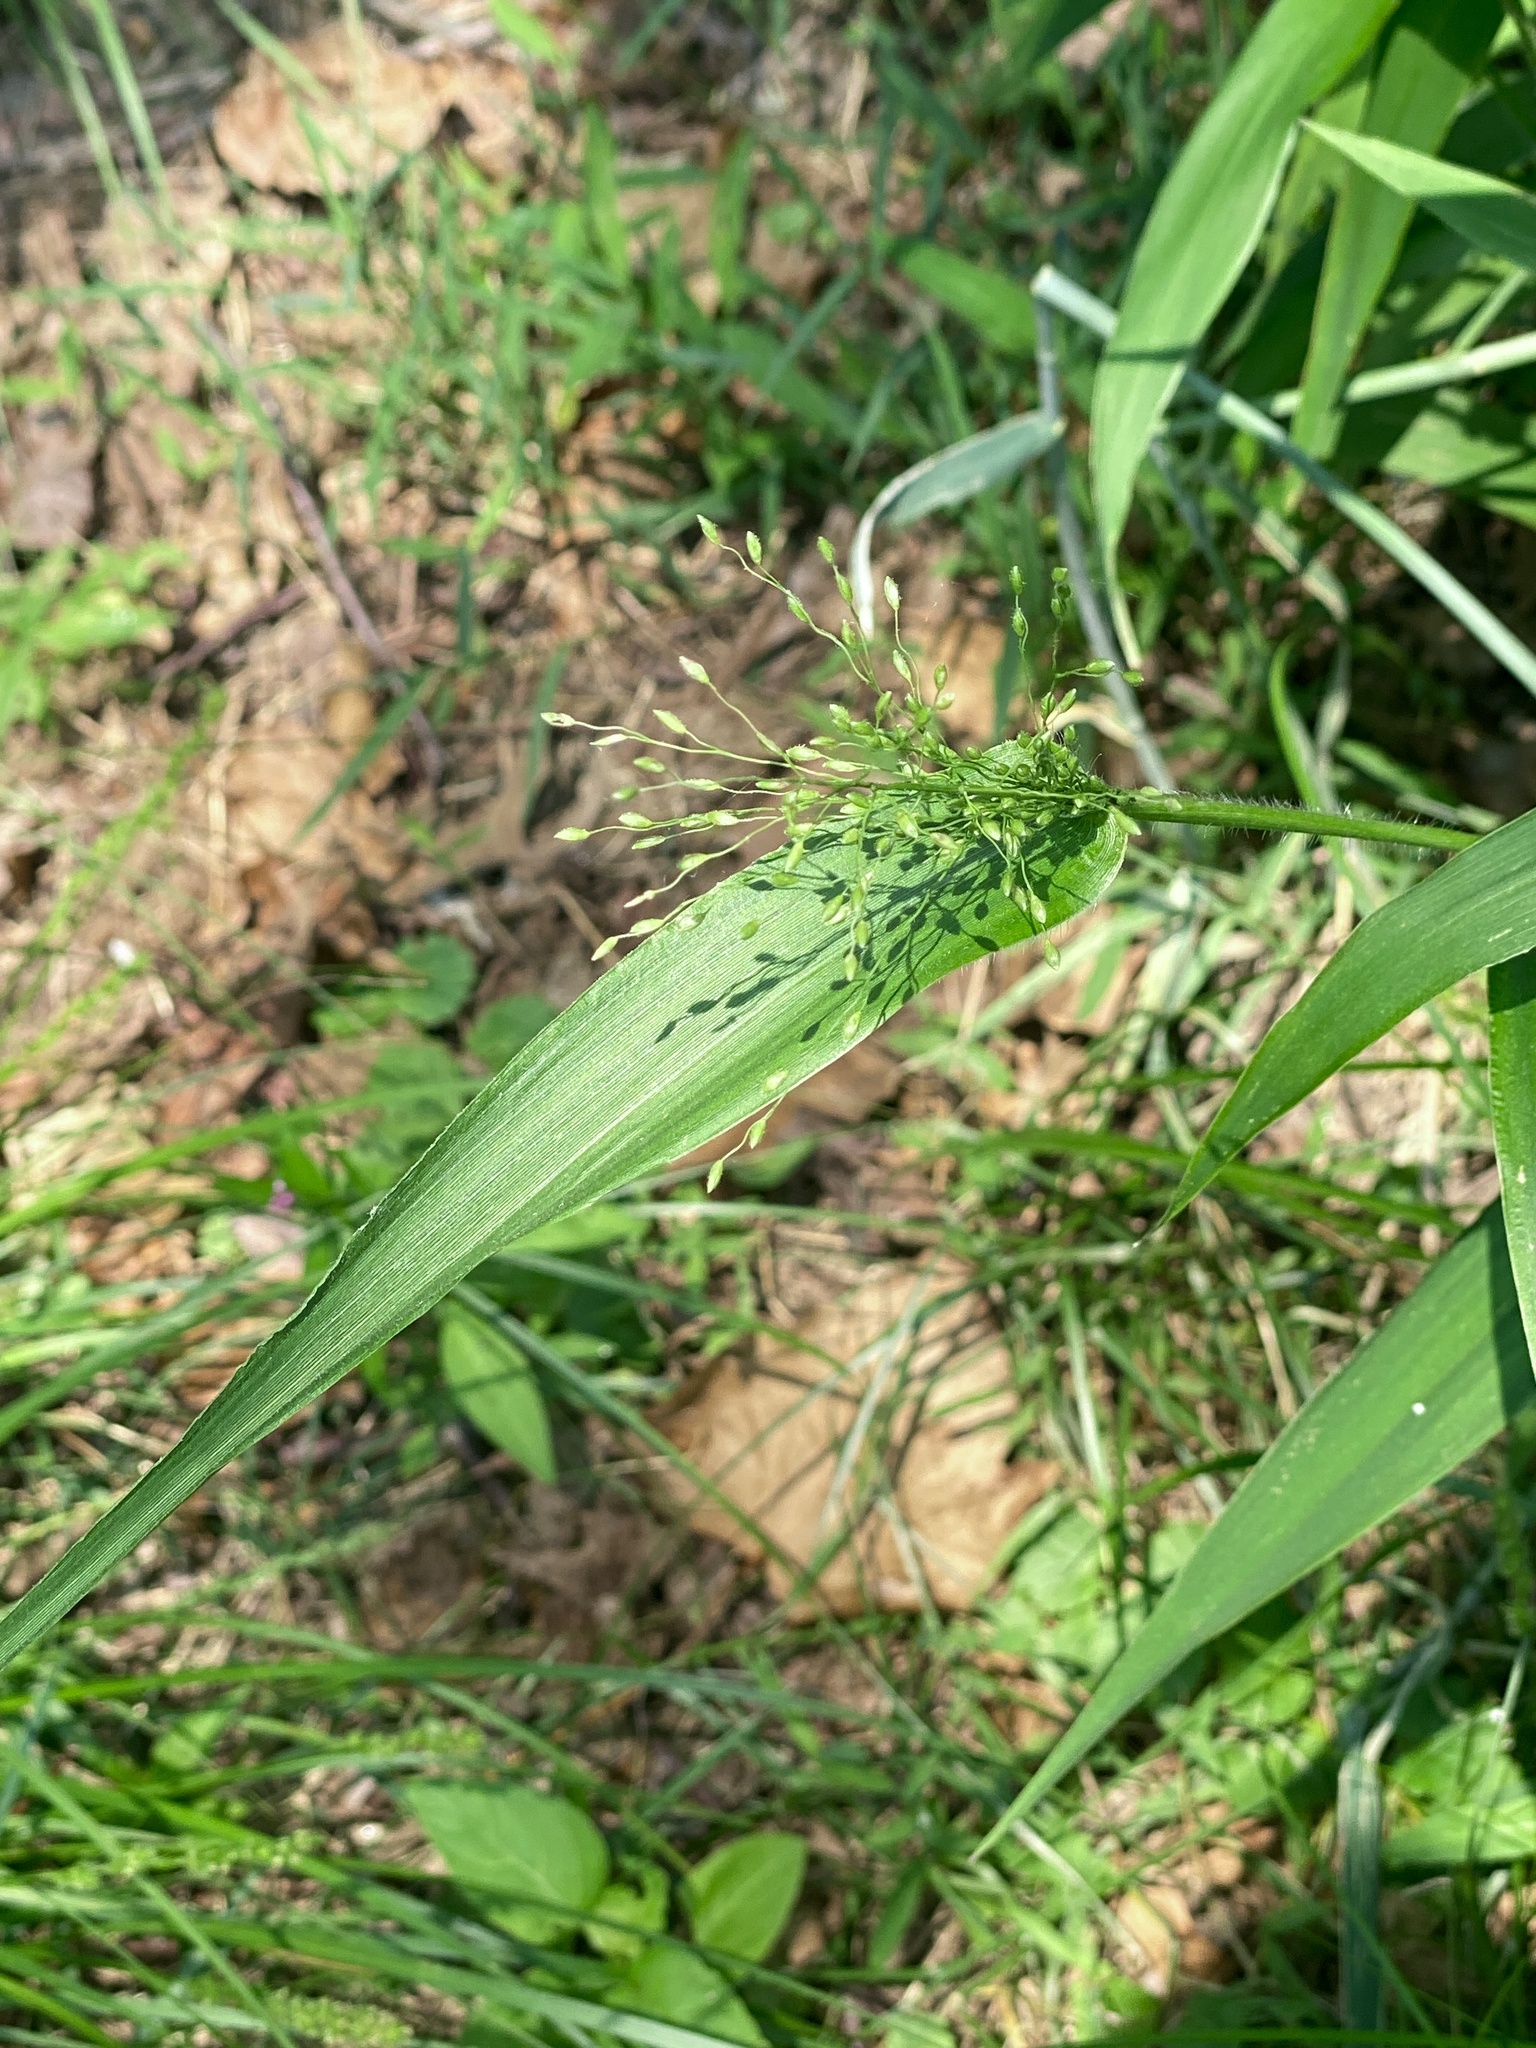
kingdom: Plantae
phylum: Tracheophyta
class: Liliopsida
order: Poales
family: Poaceae
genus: Dichanthelium
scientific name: Dichanthelium clandestinum
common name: Deer-tongue grass
